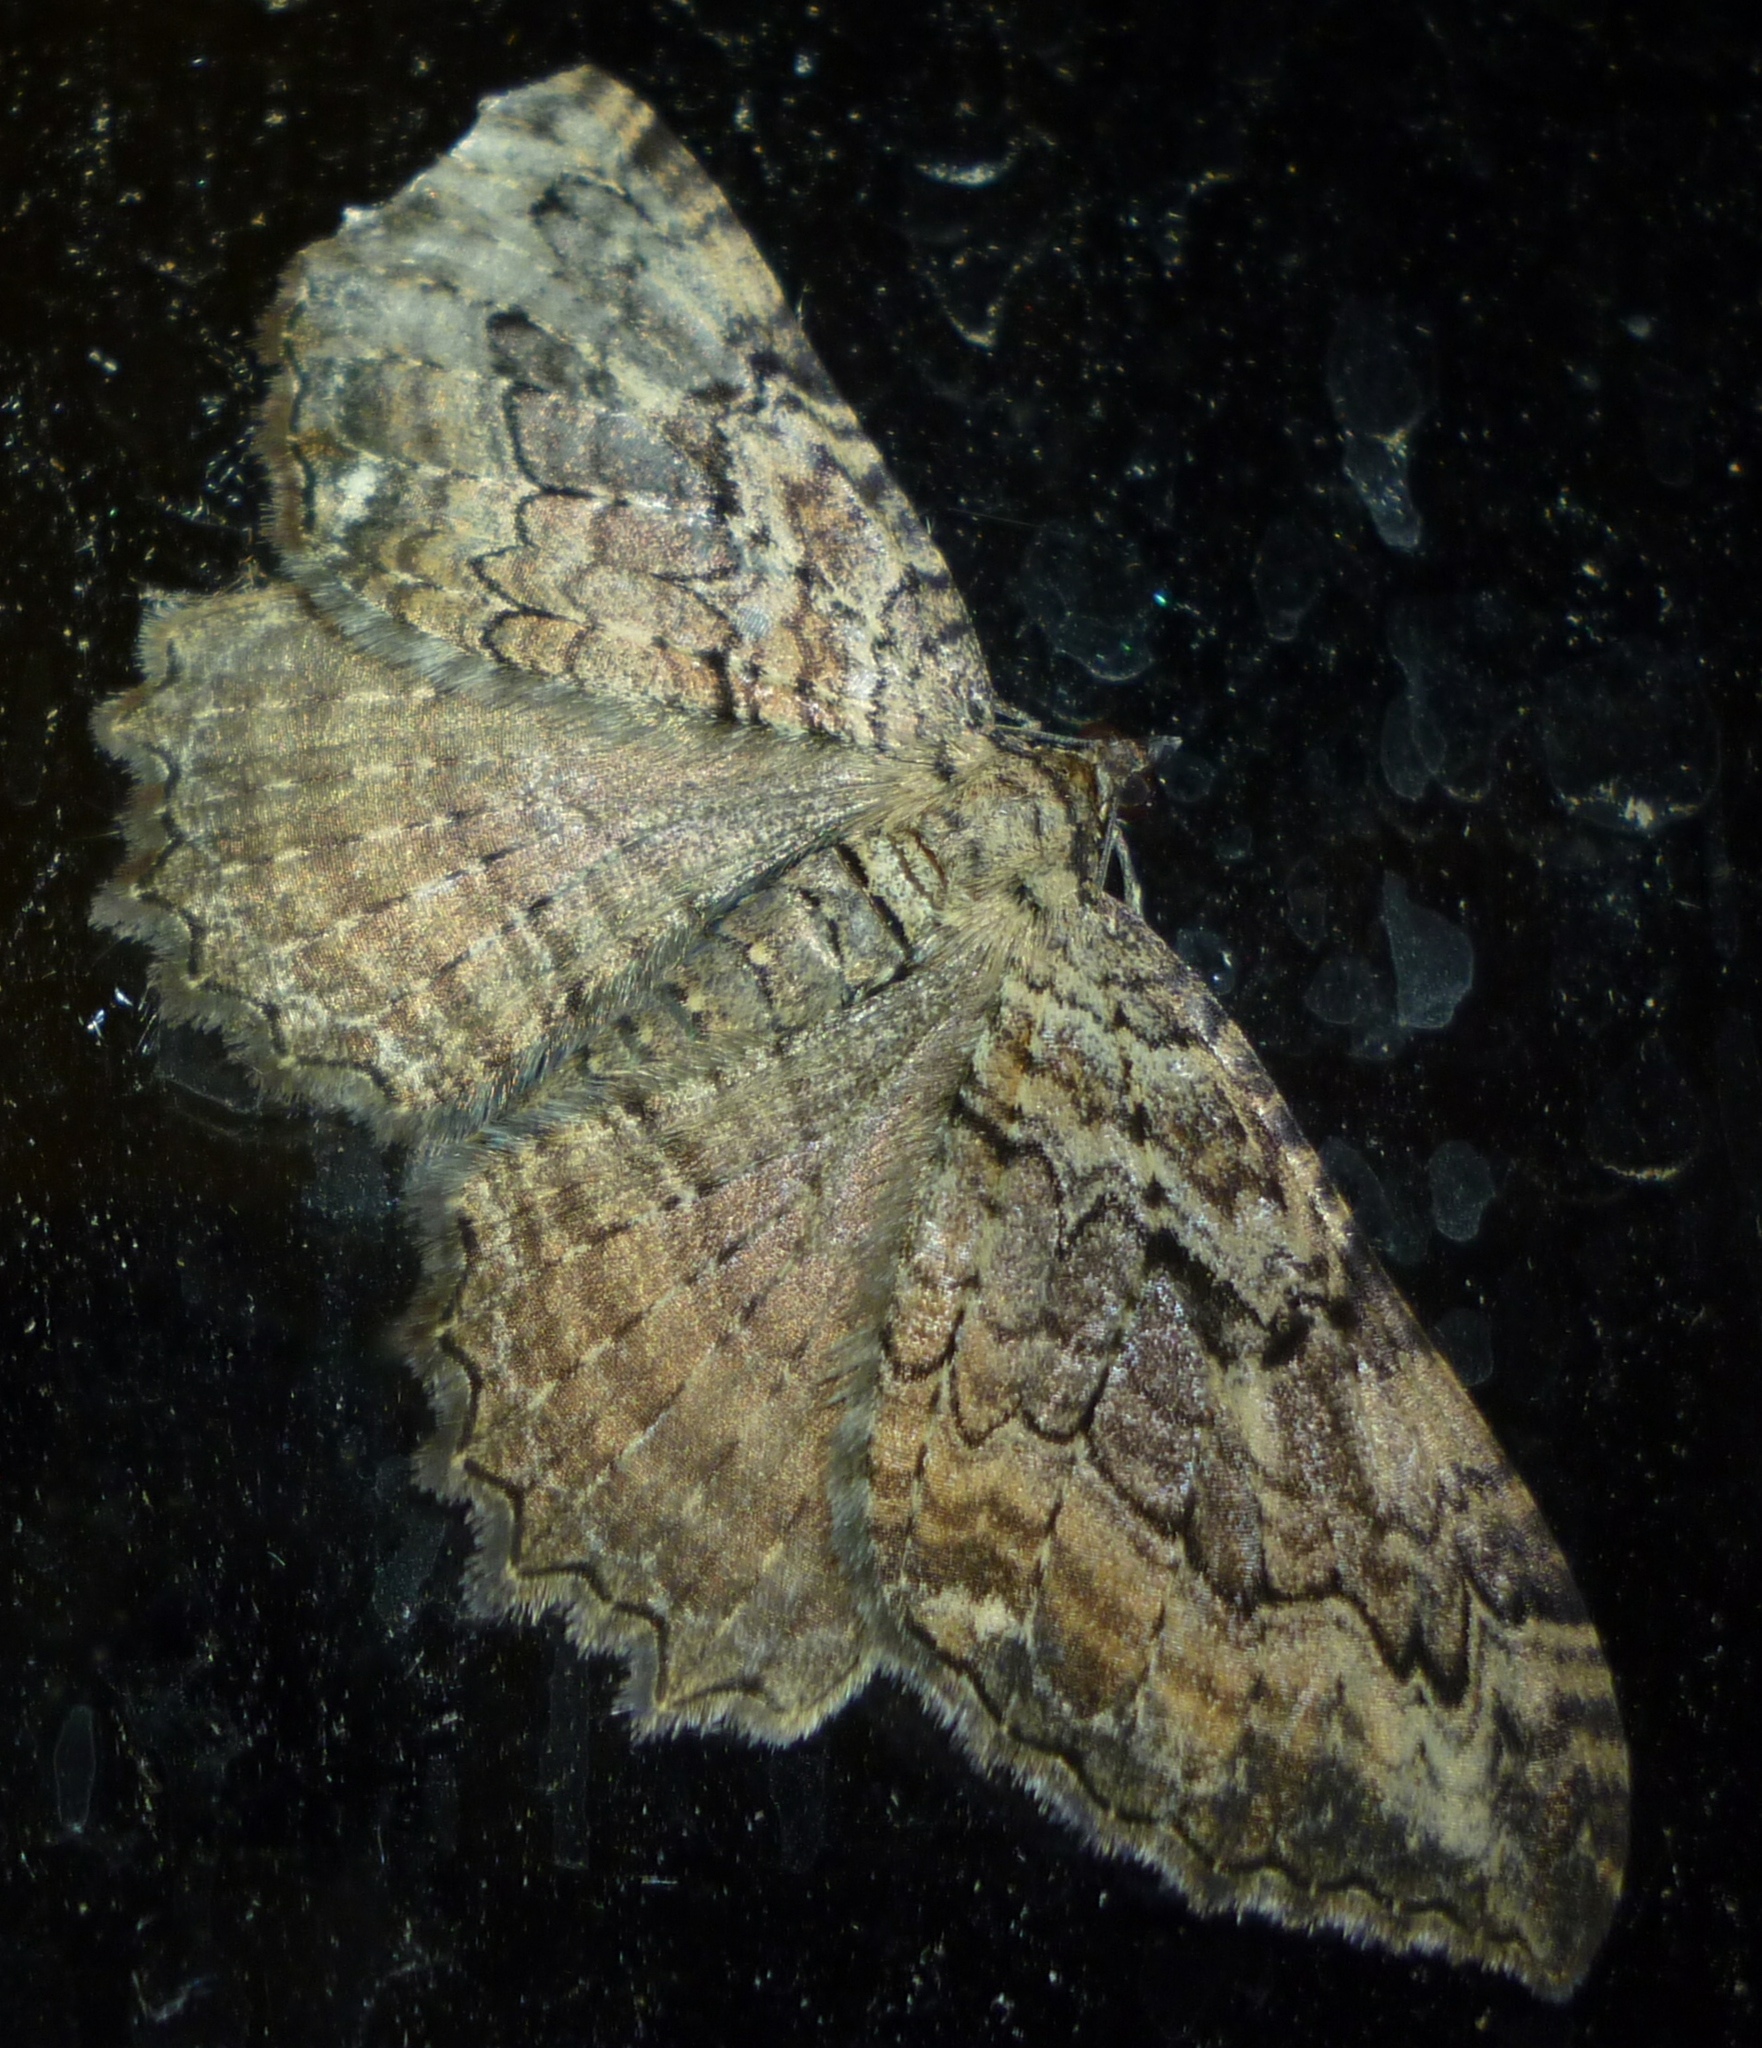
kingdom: Animalia
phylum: Arthropoda
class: Insecta
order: Lepidoptera
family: Geometridae
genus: Rheumaptera
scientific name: Rheumaptera
